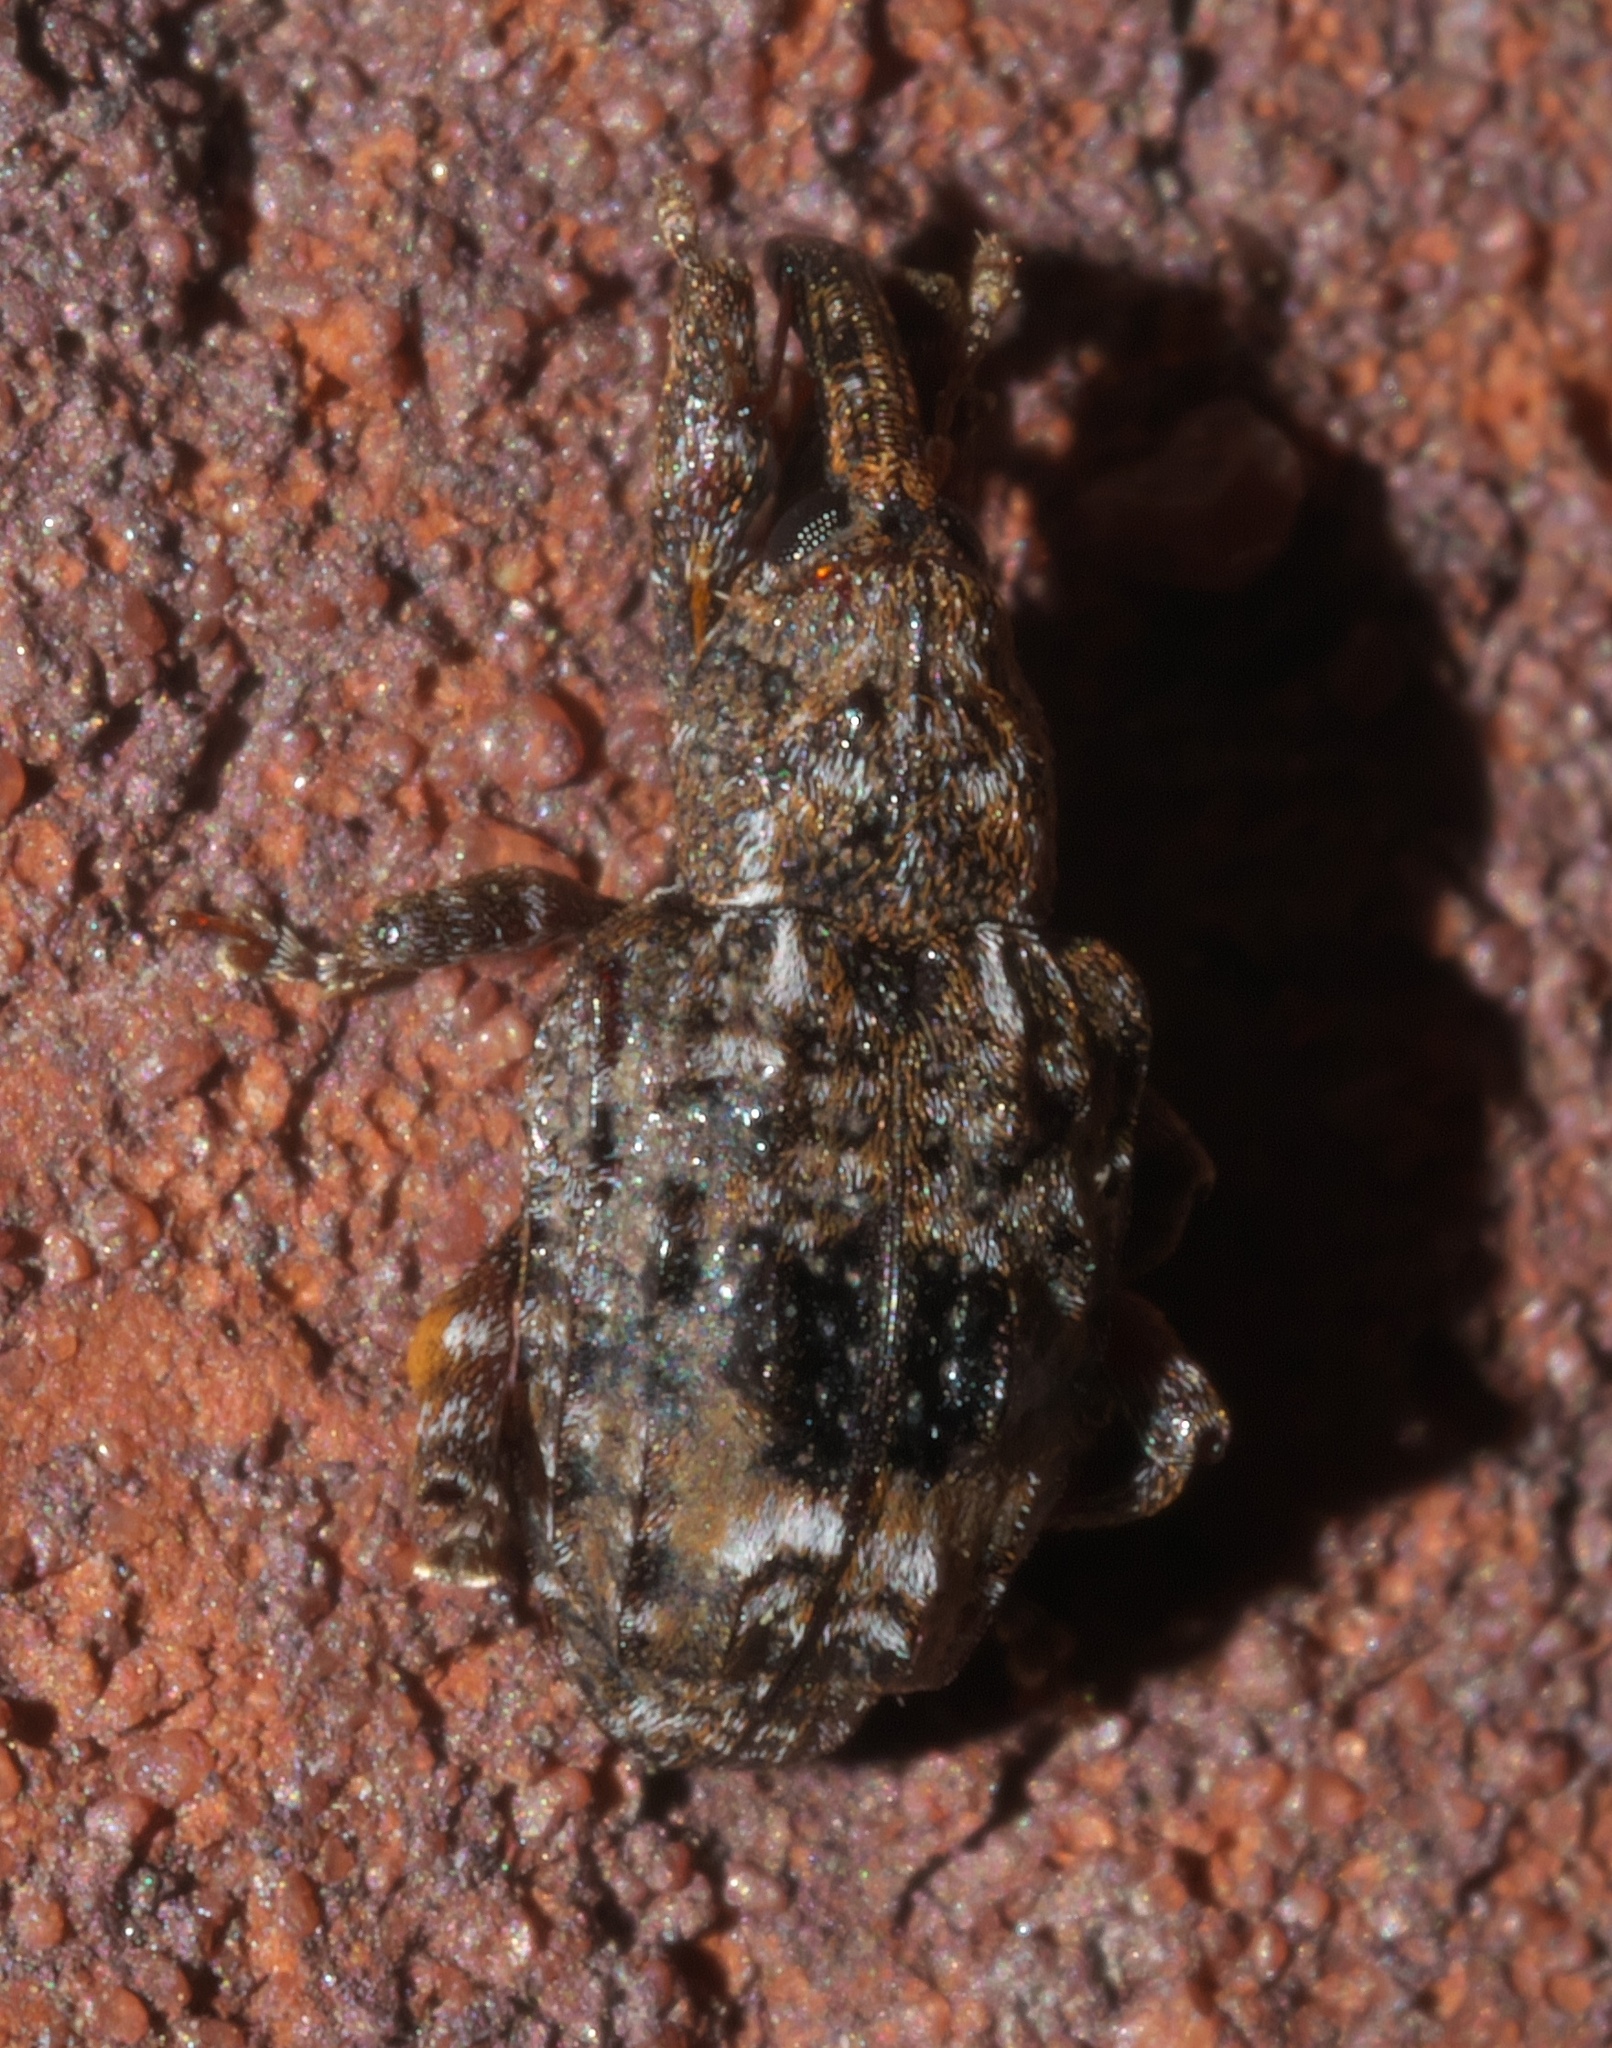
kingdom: Animalia
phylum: Arthropoda
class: Insecta
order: Coleoptera
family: Curculionidae
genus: Conotrachelus
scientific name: Conotrachelus nenuphar
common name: Plum curculio
